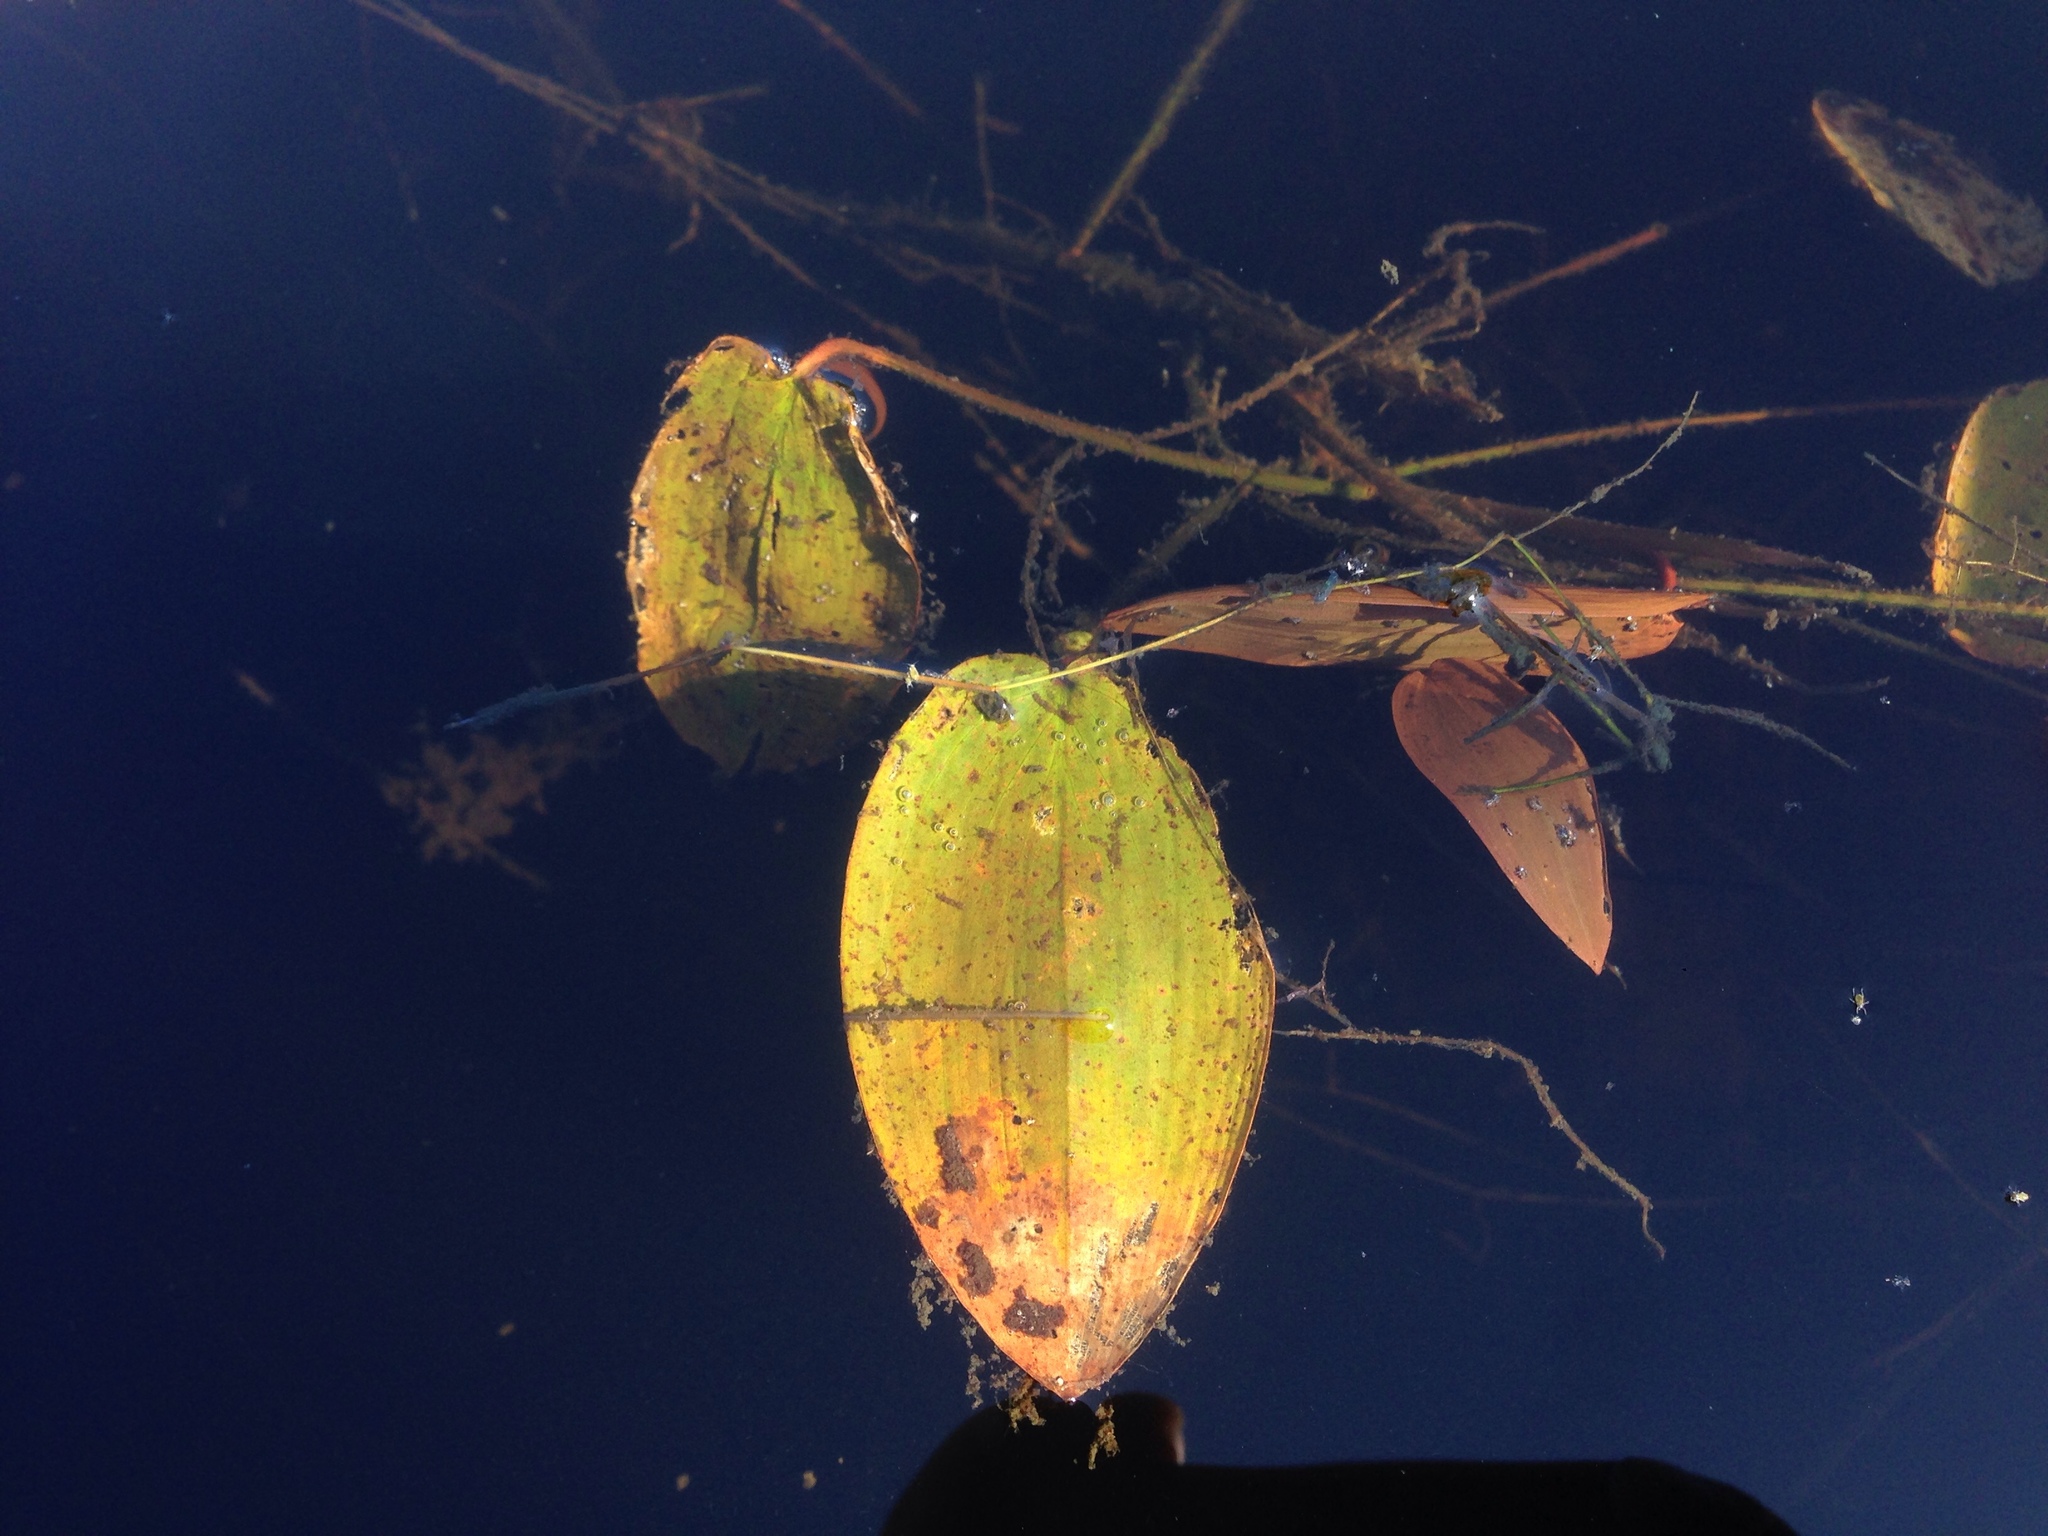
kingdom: Plantae
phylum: Tracheophyta
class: Liliopsida
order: Alismatales
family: Potamogetonaceae
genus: Potamogeton
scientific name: Potamogeton natans
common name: Broad-leaved pondweed
